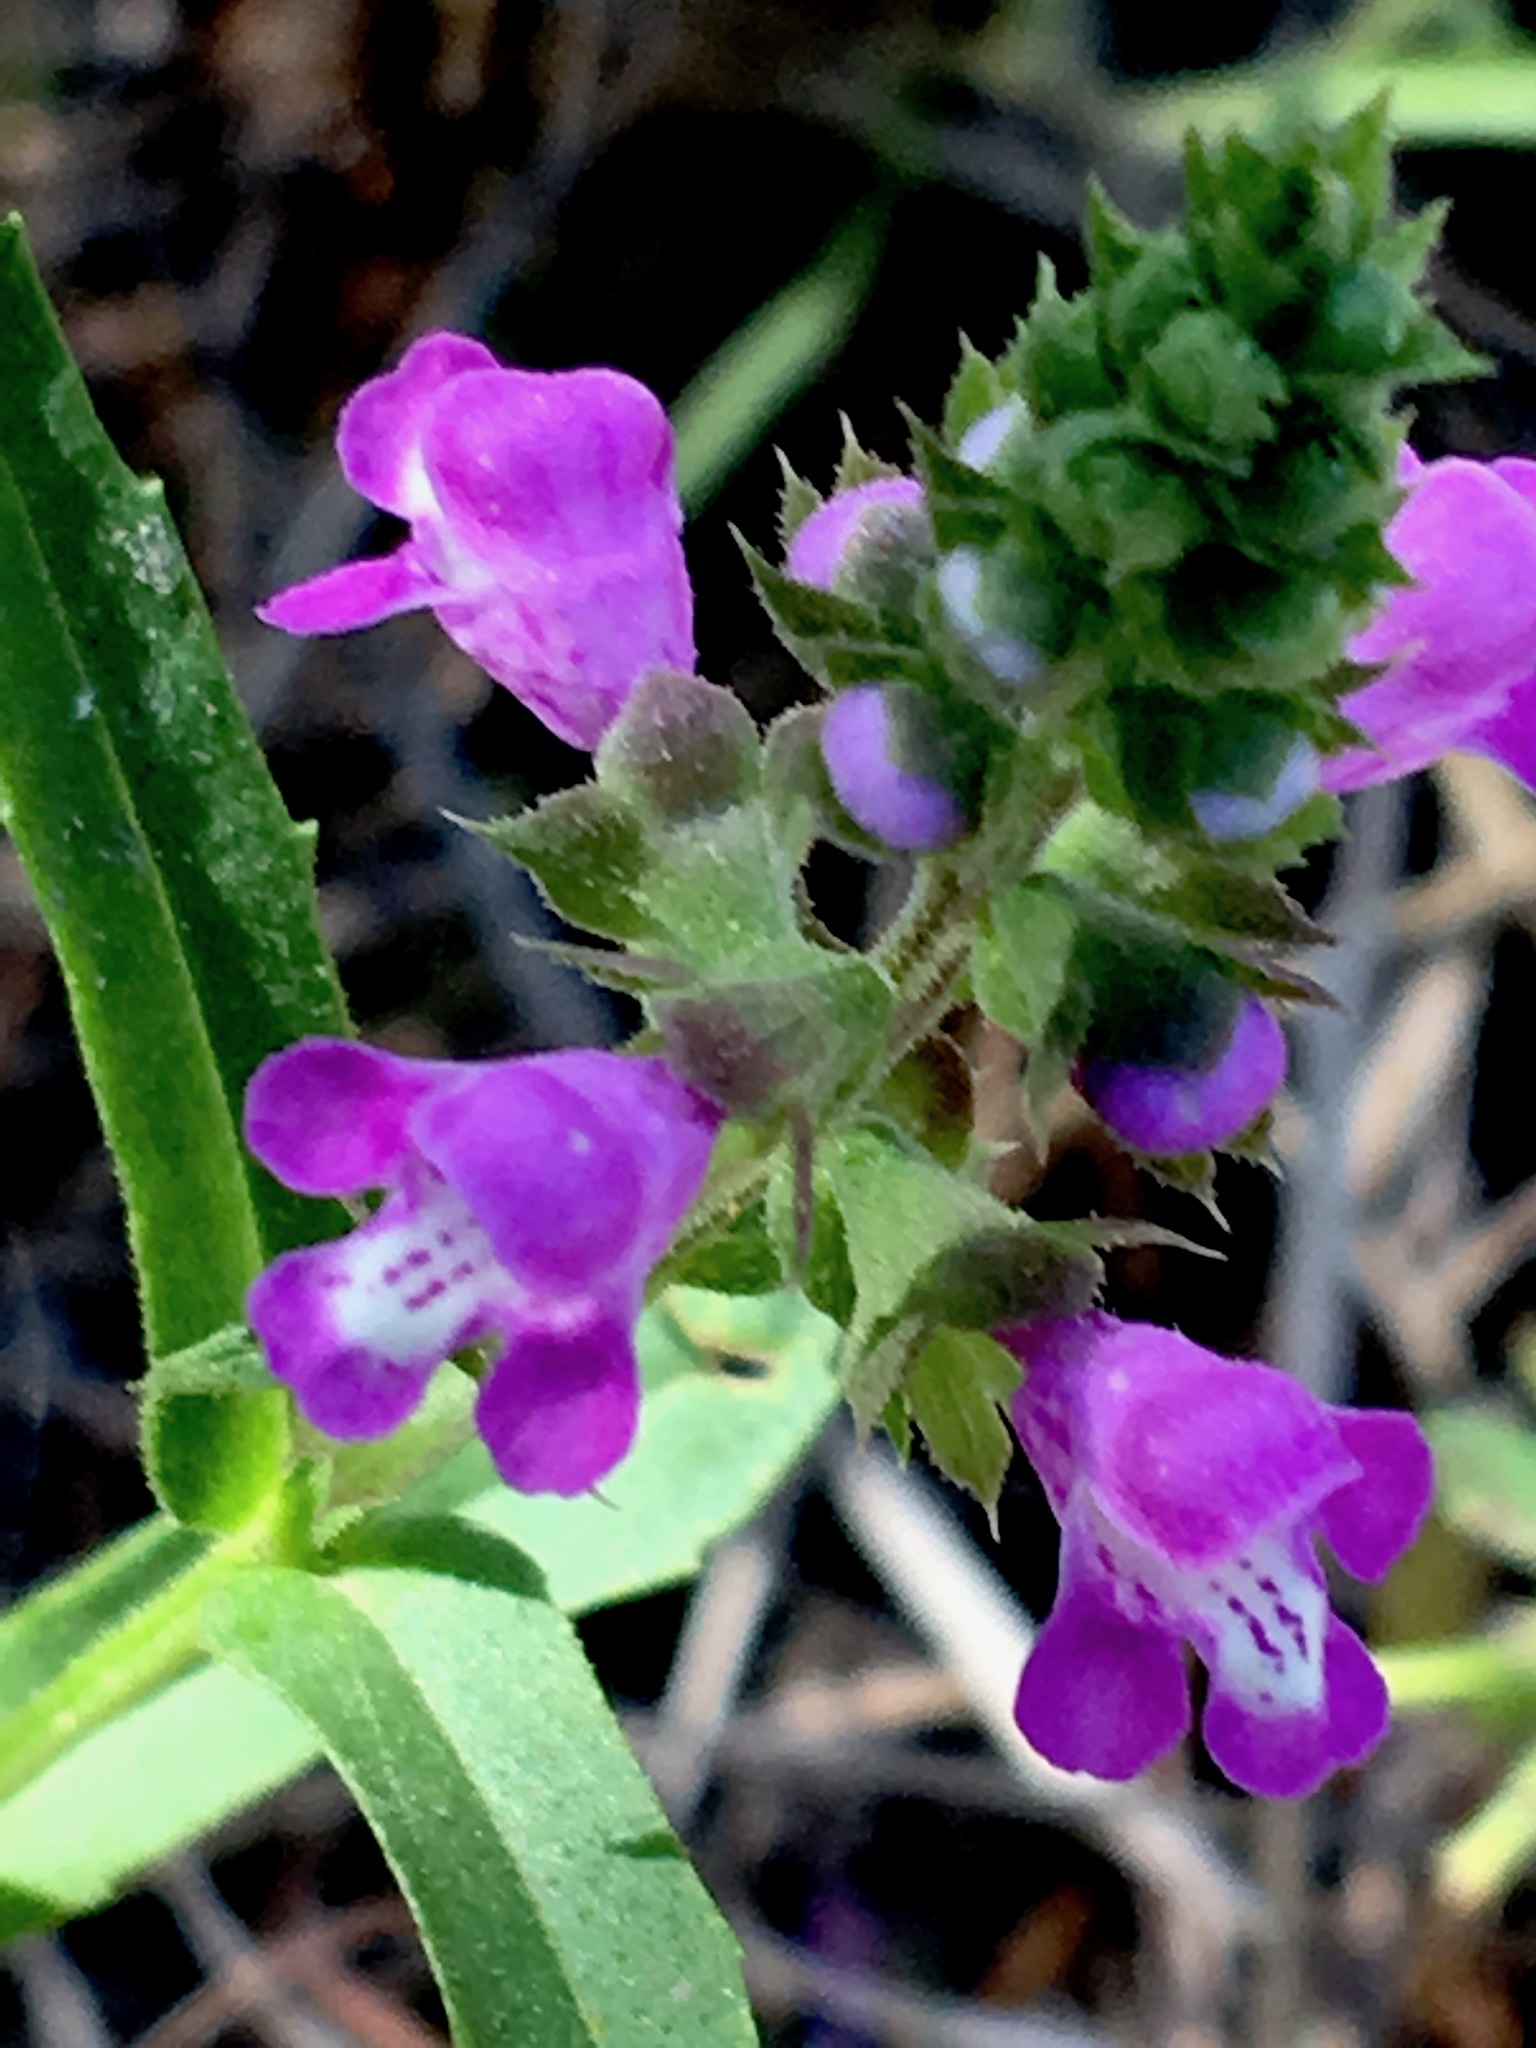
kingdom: Plantae
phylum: Tracheophyta
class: Magnoliopsida
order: Lamiales
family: Lamiaceae
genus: Warnockia
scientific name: Warnockia scutellarioides
